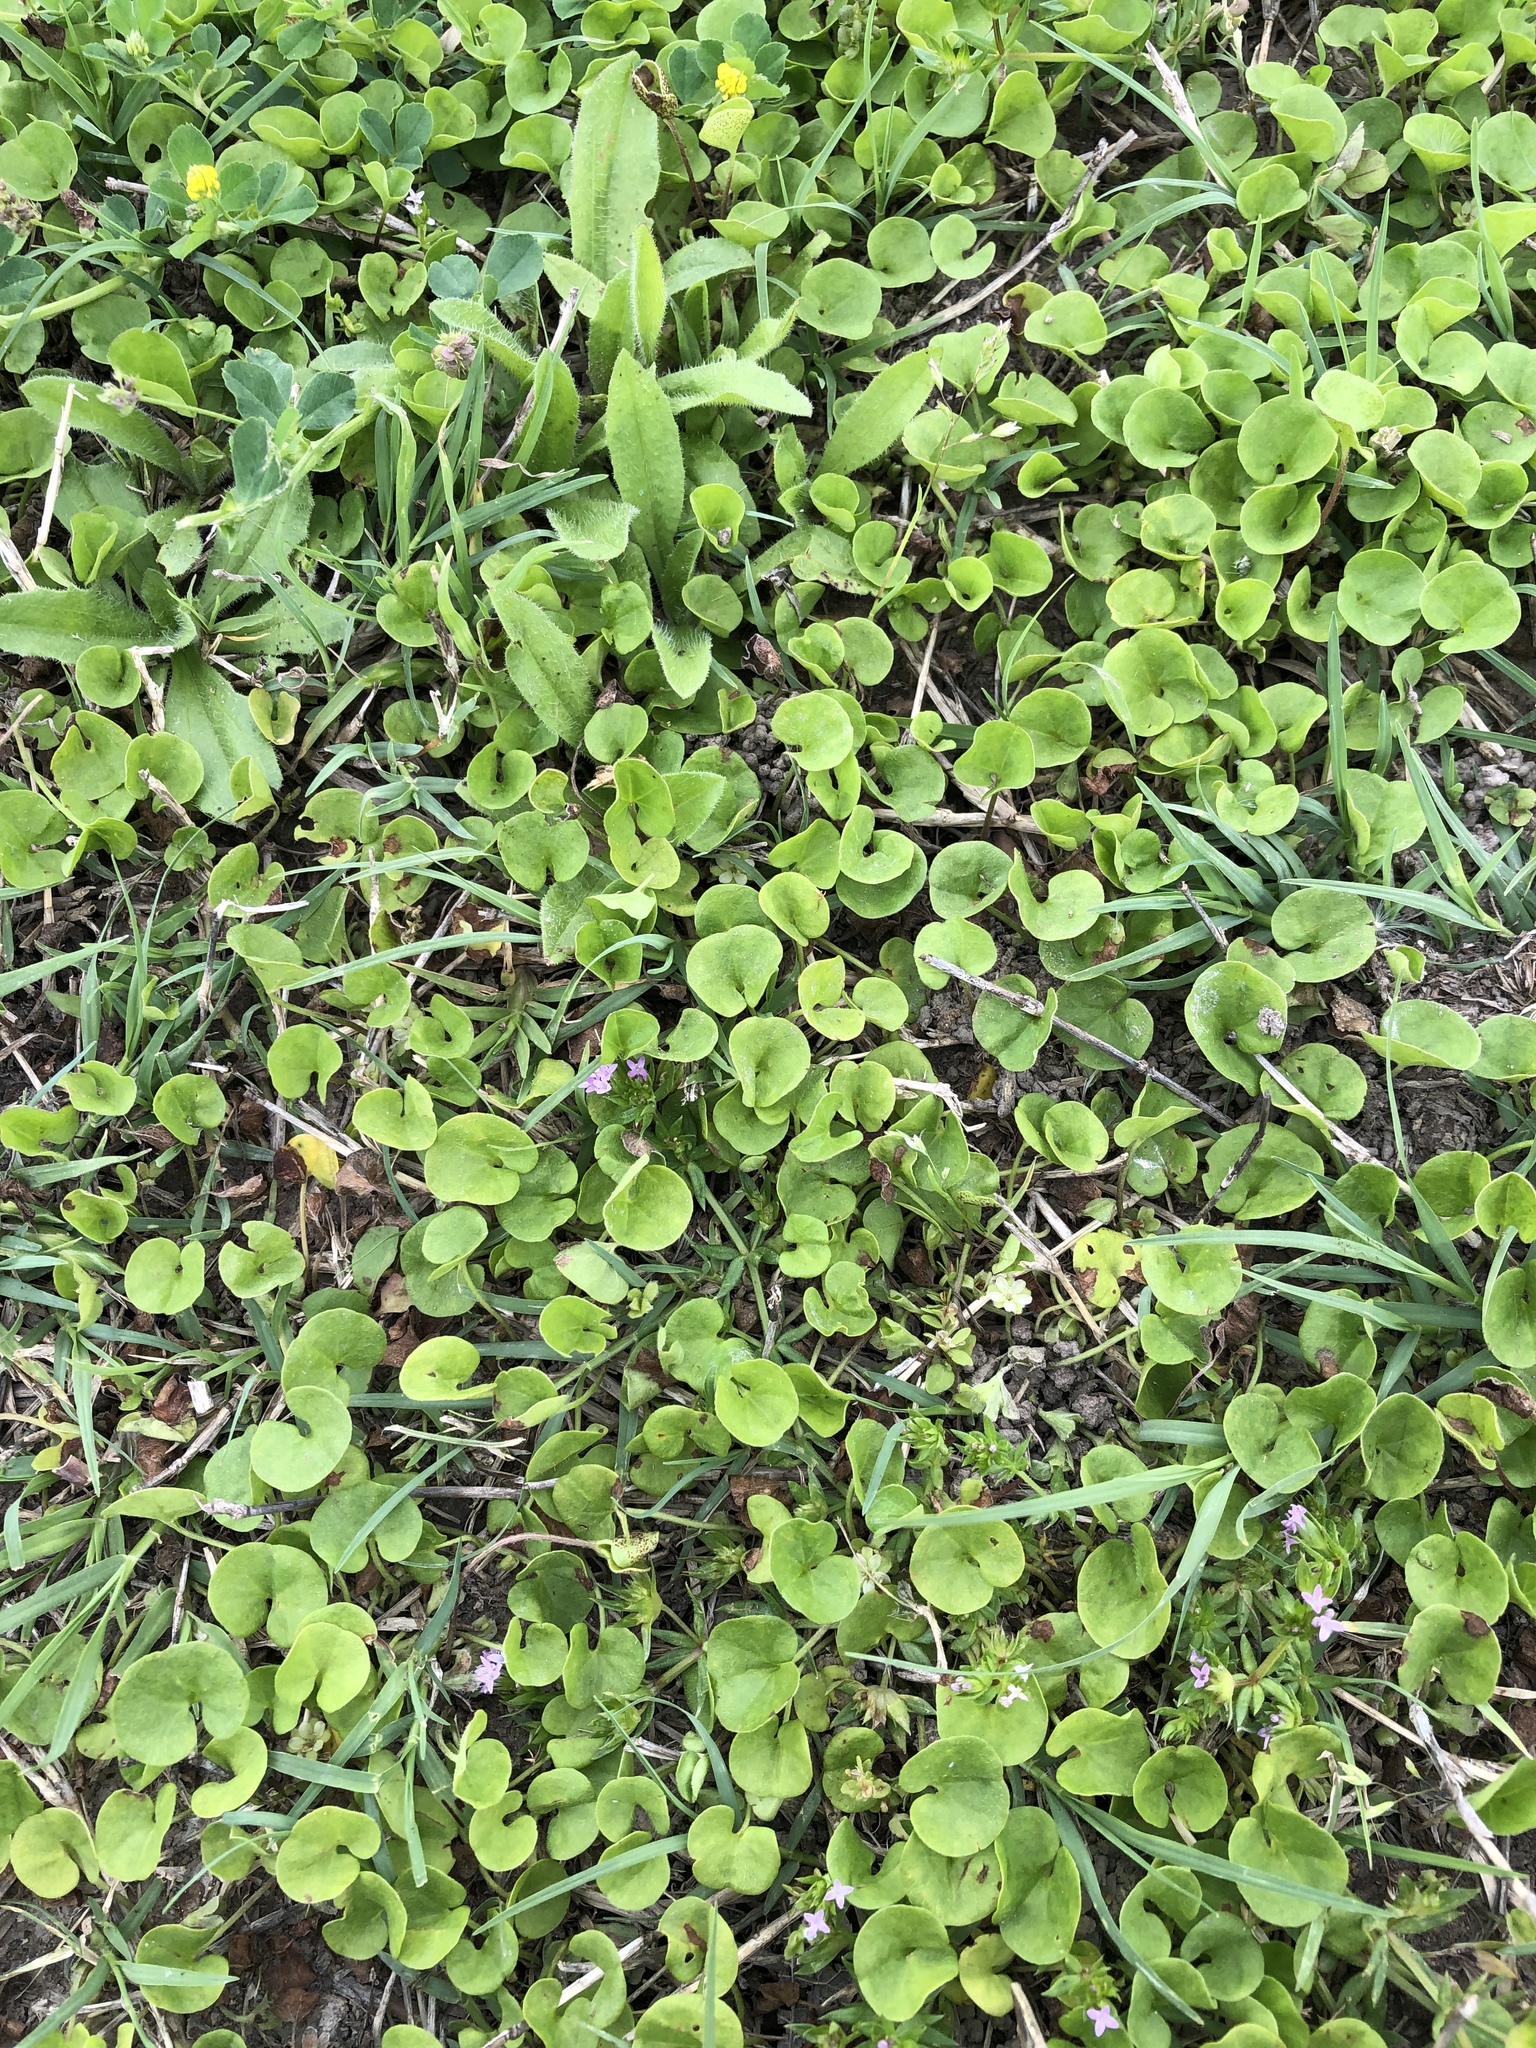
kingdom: Plantae
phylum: Tracheophyta
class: Magnoliopsida
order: Solanales
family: Convolvulaceae
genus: Dichondra
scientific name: Dichondra carolinensis
